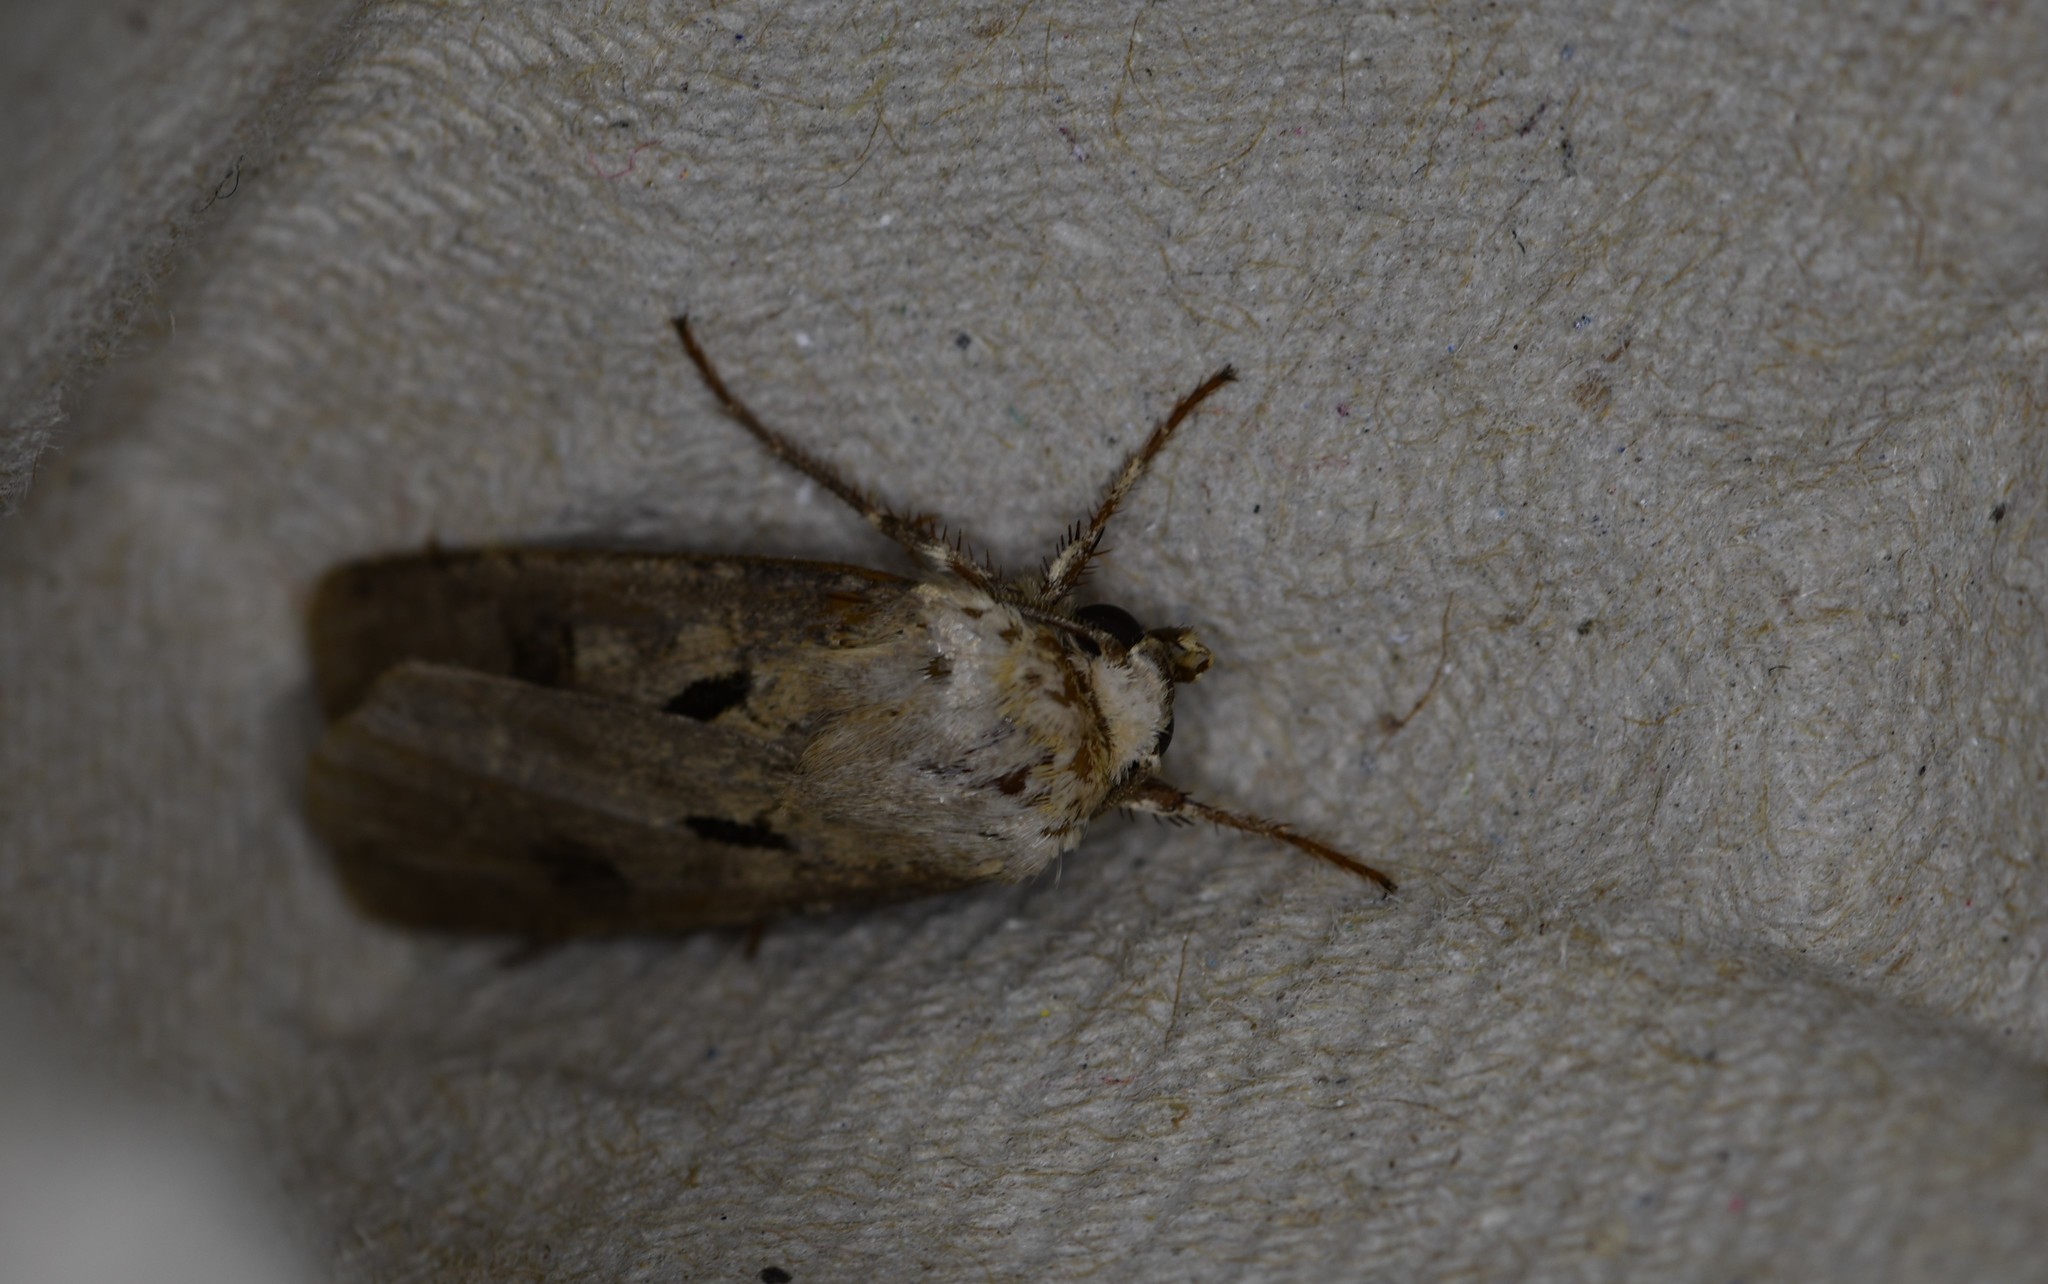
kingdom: Animalia
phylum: Arthropoda
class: Insecta
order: Lepidoptera
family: Noctuidae
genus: Agrotis
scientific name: Agrotis exclamationis
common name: Heart and dart
